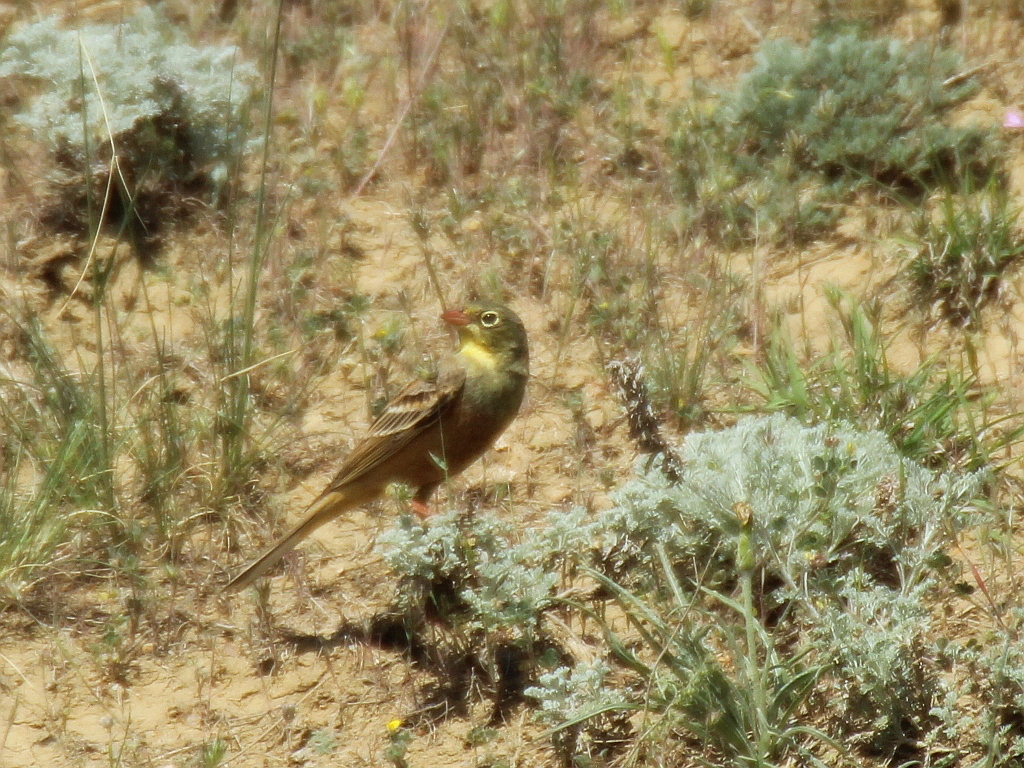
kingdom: Animalia
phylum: Chordata
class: Aves
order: Passeriformes
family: Emberizidae
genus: Emberiza
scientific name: Emberiza hortulana
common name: Ortolan bunting
